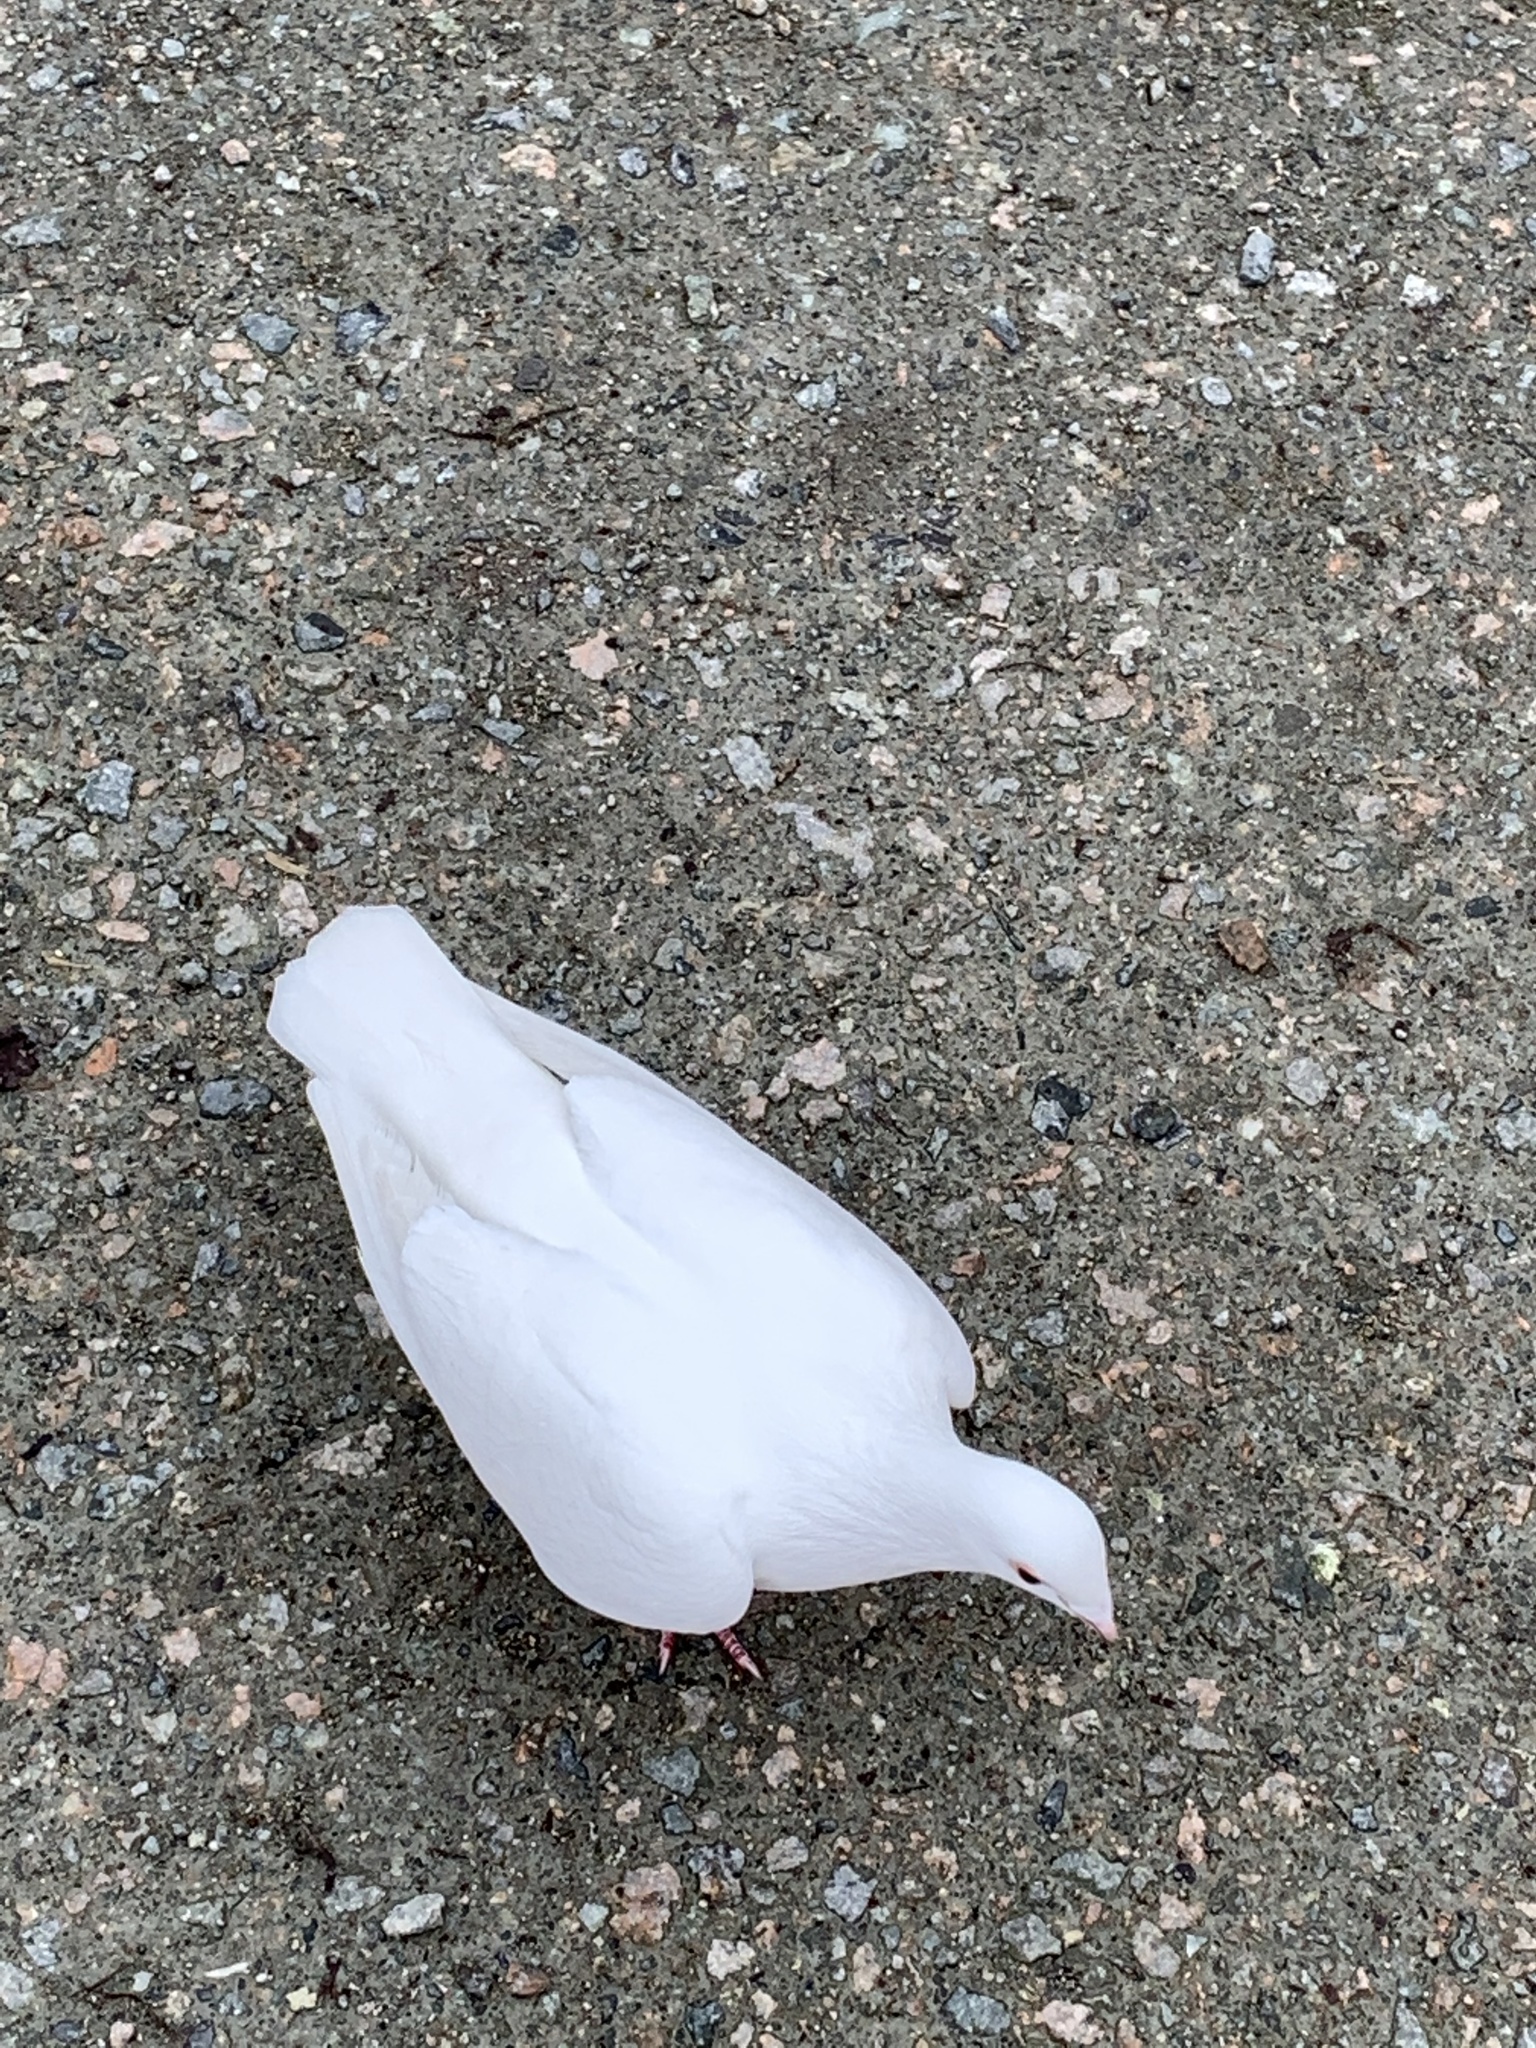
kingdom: Animalia
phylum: Chordata
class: Aves
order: Columbiformes
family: Columbidae
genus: Columba
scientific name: Columba livia
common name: Rock pigeon
